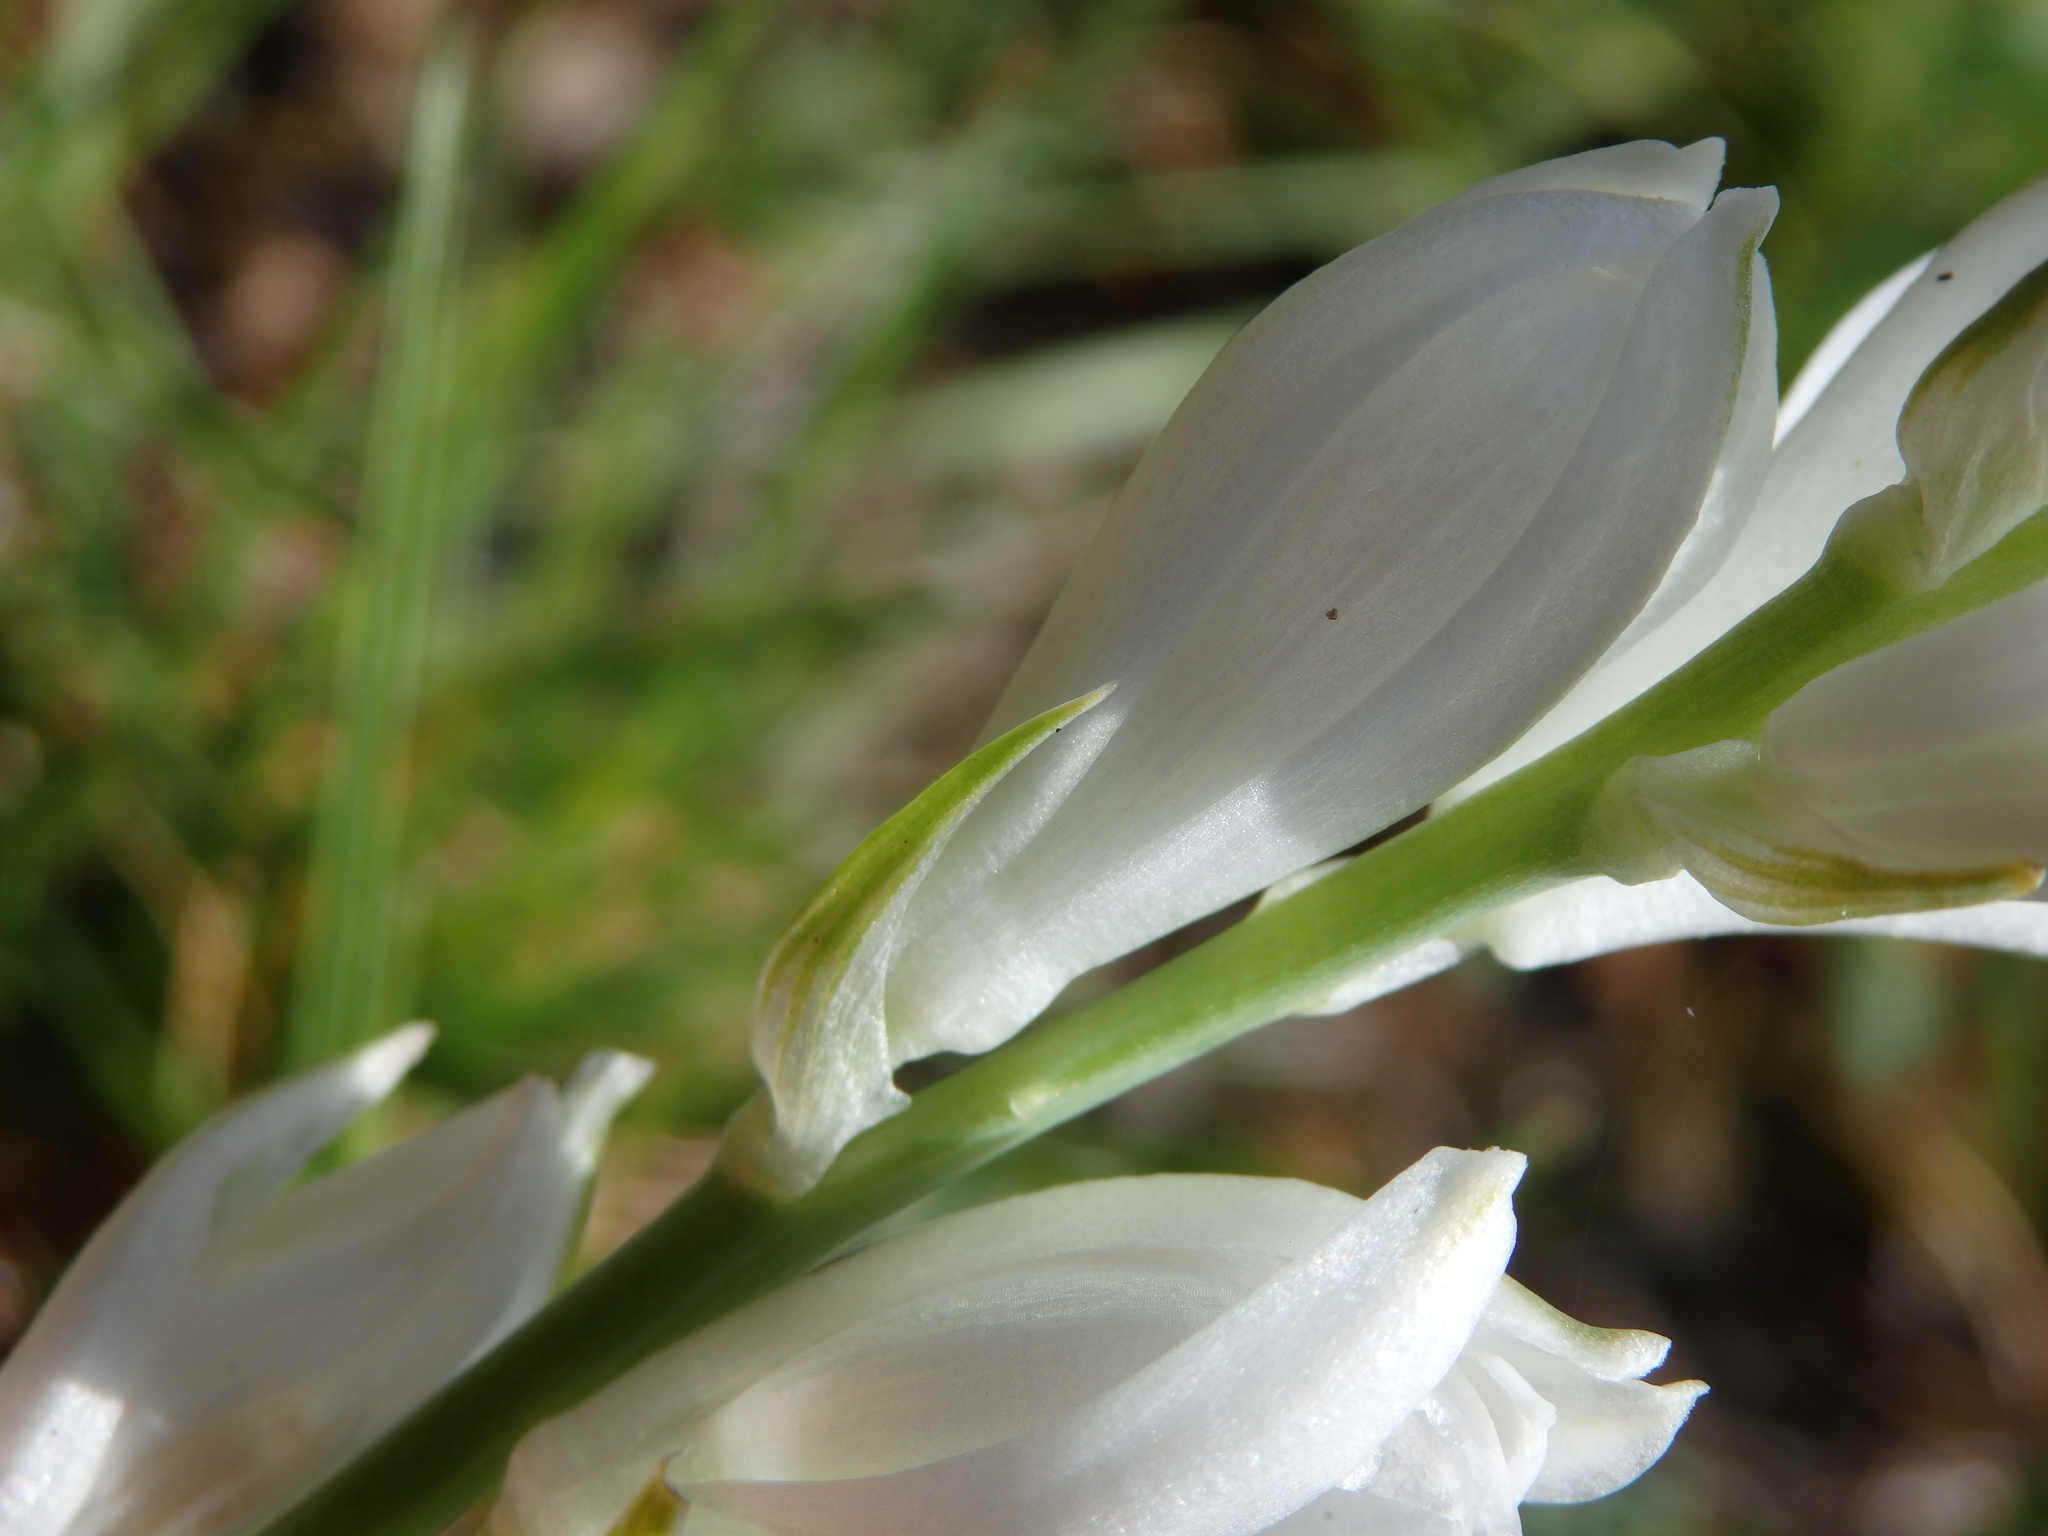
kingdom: Plantae
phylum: Tracheophyta
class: Liliopsida
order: Asparagales
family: Asparagaceae
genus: Ornithogalum
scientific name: Ornithogalum concinnum
